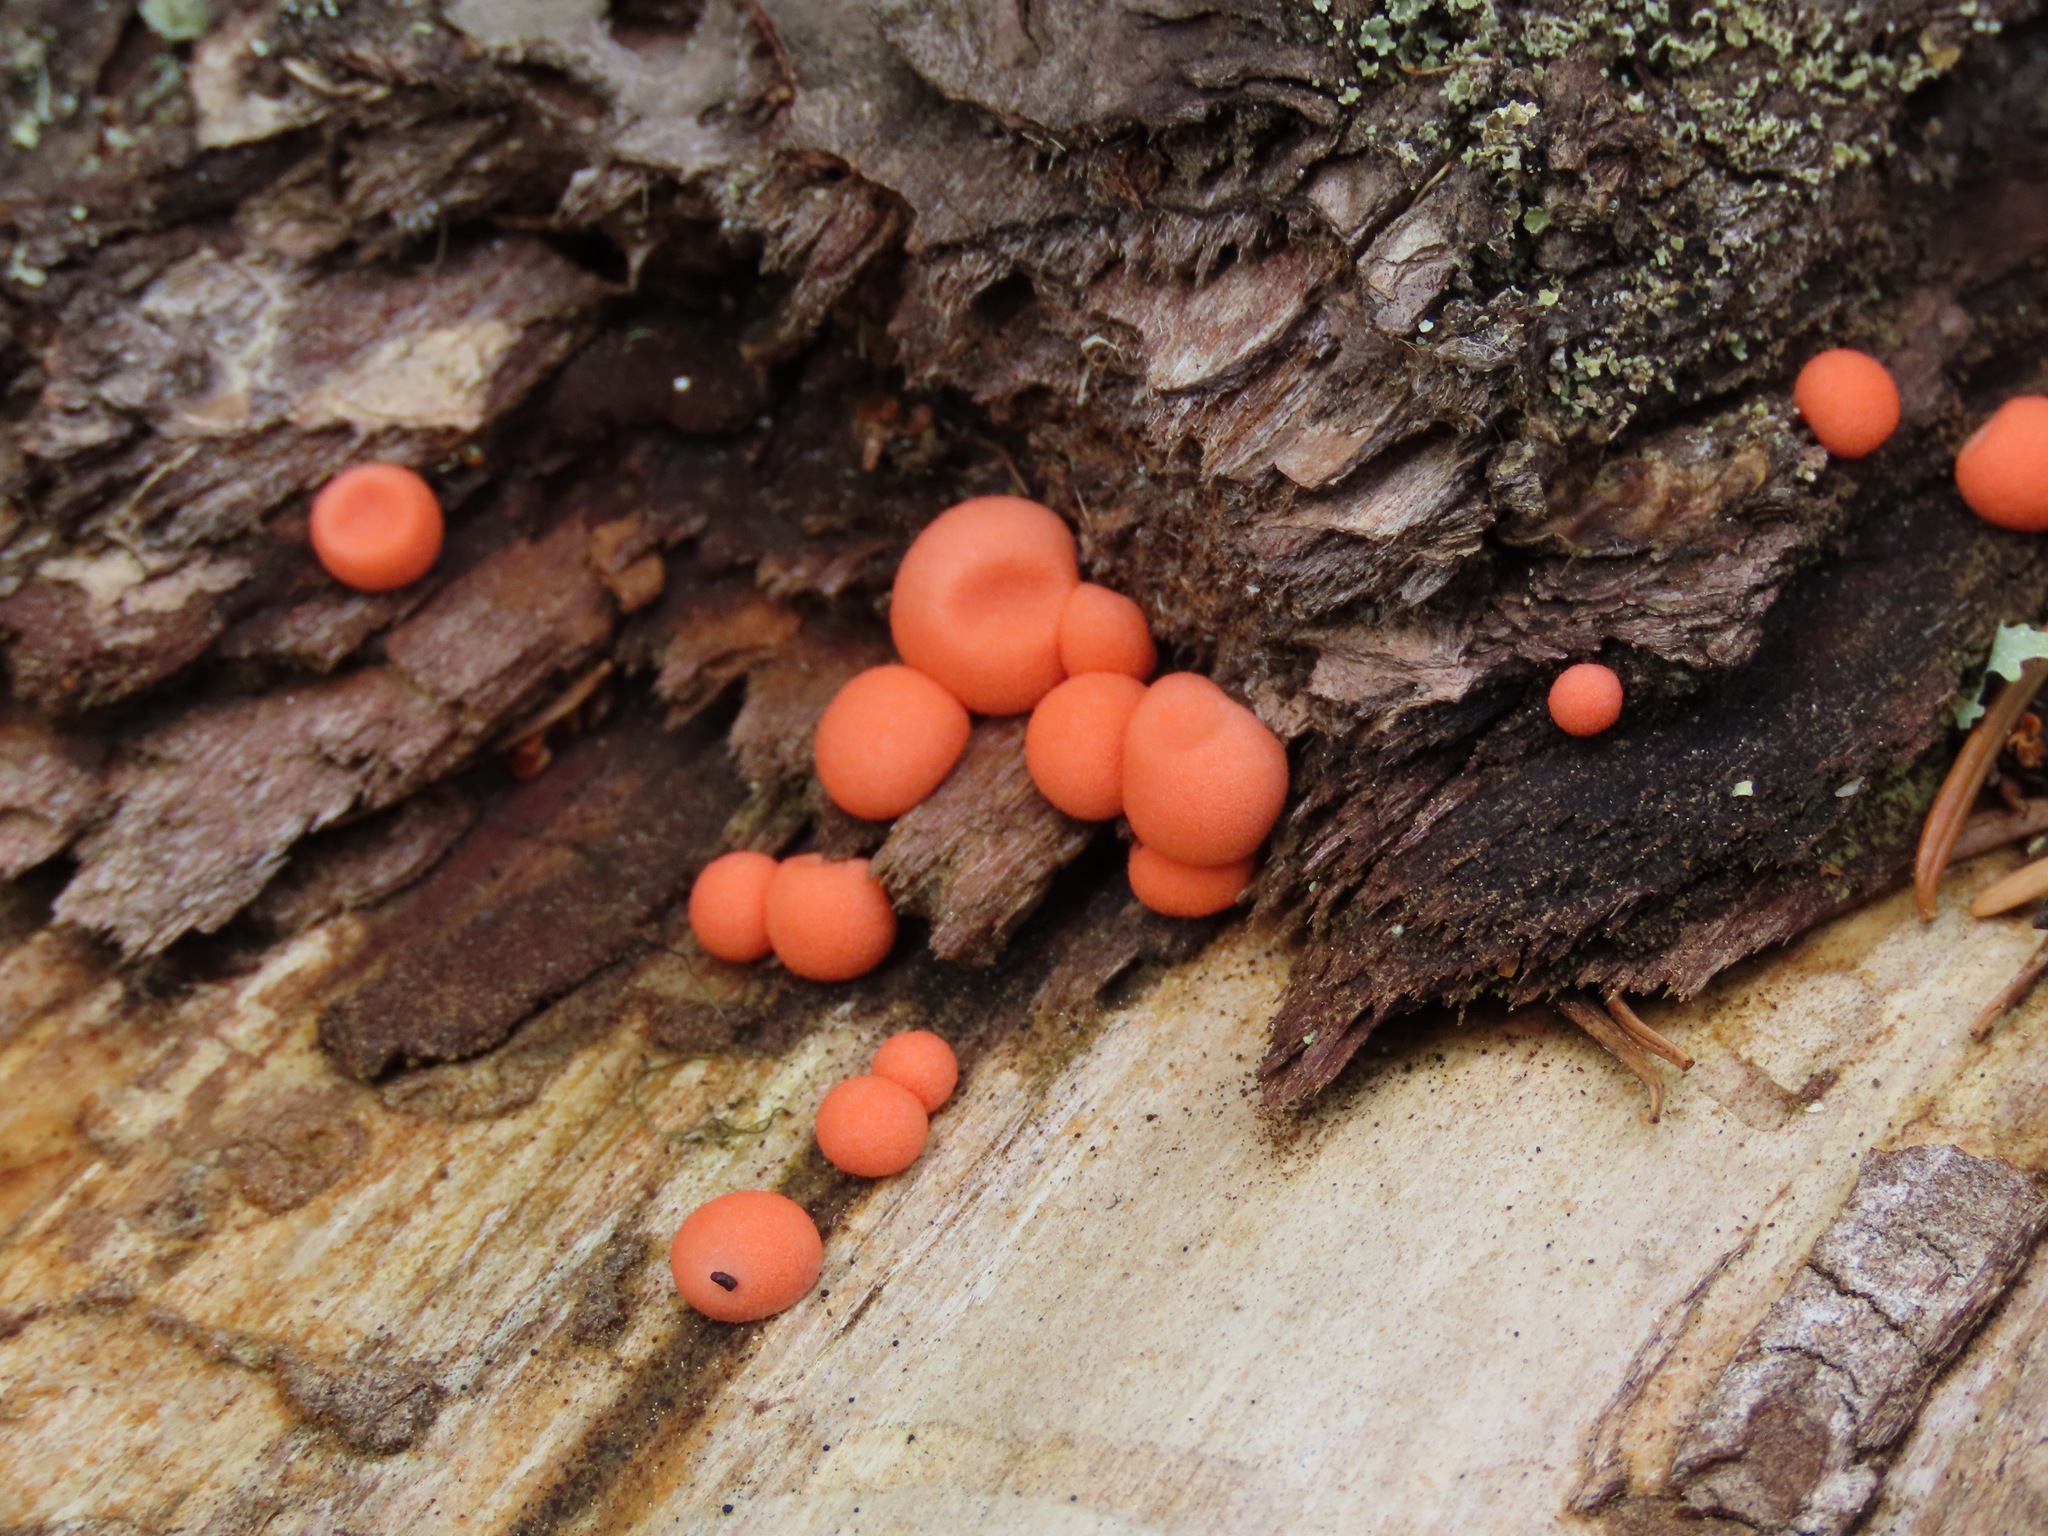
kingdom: Protozoa
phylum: Mycetozoa
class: Myxomycetes
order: Cribrariales
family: Tubiferaceae
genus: Lycogala
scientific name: Lycogala epidendrum
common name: Wolf's milk
